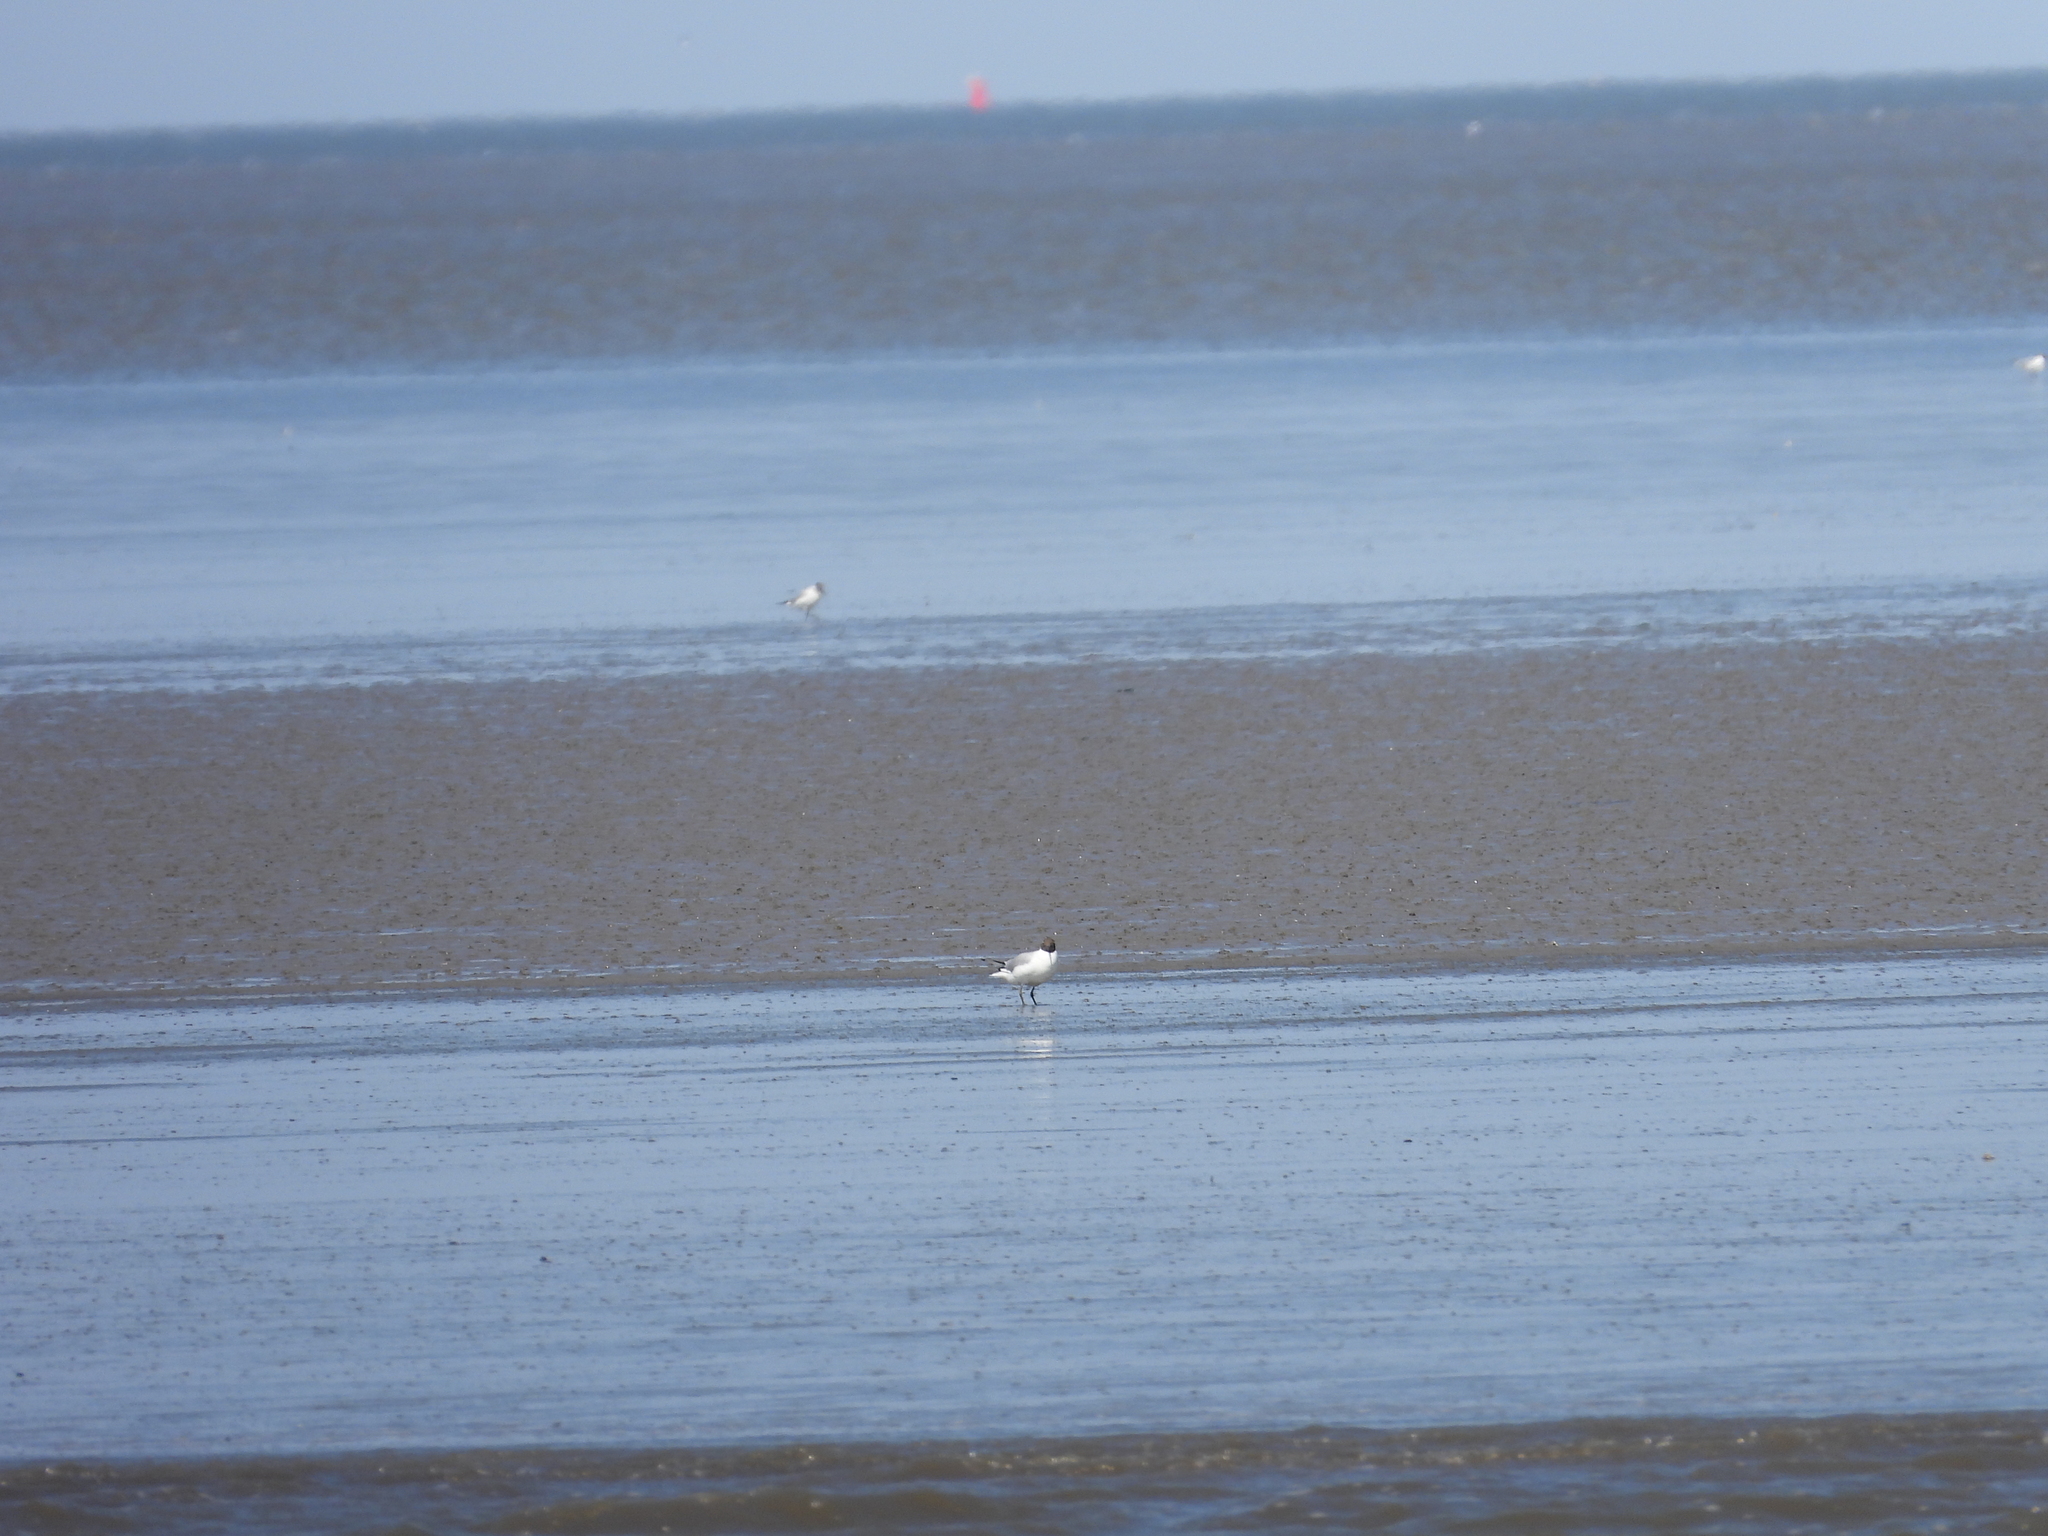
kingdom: Animalia
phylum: Chordata
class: Aves
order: Charadriiformes
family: Laridae
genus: Chroicocephalus
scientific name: Chroicocephalus ridibundus
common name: Black-headed gull
